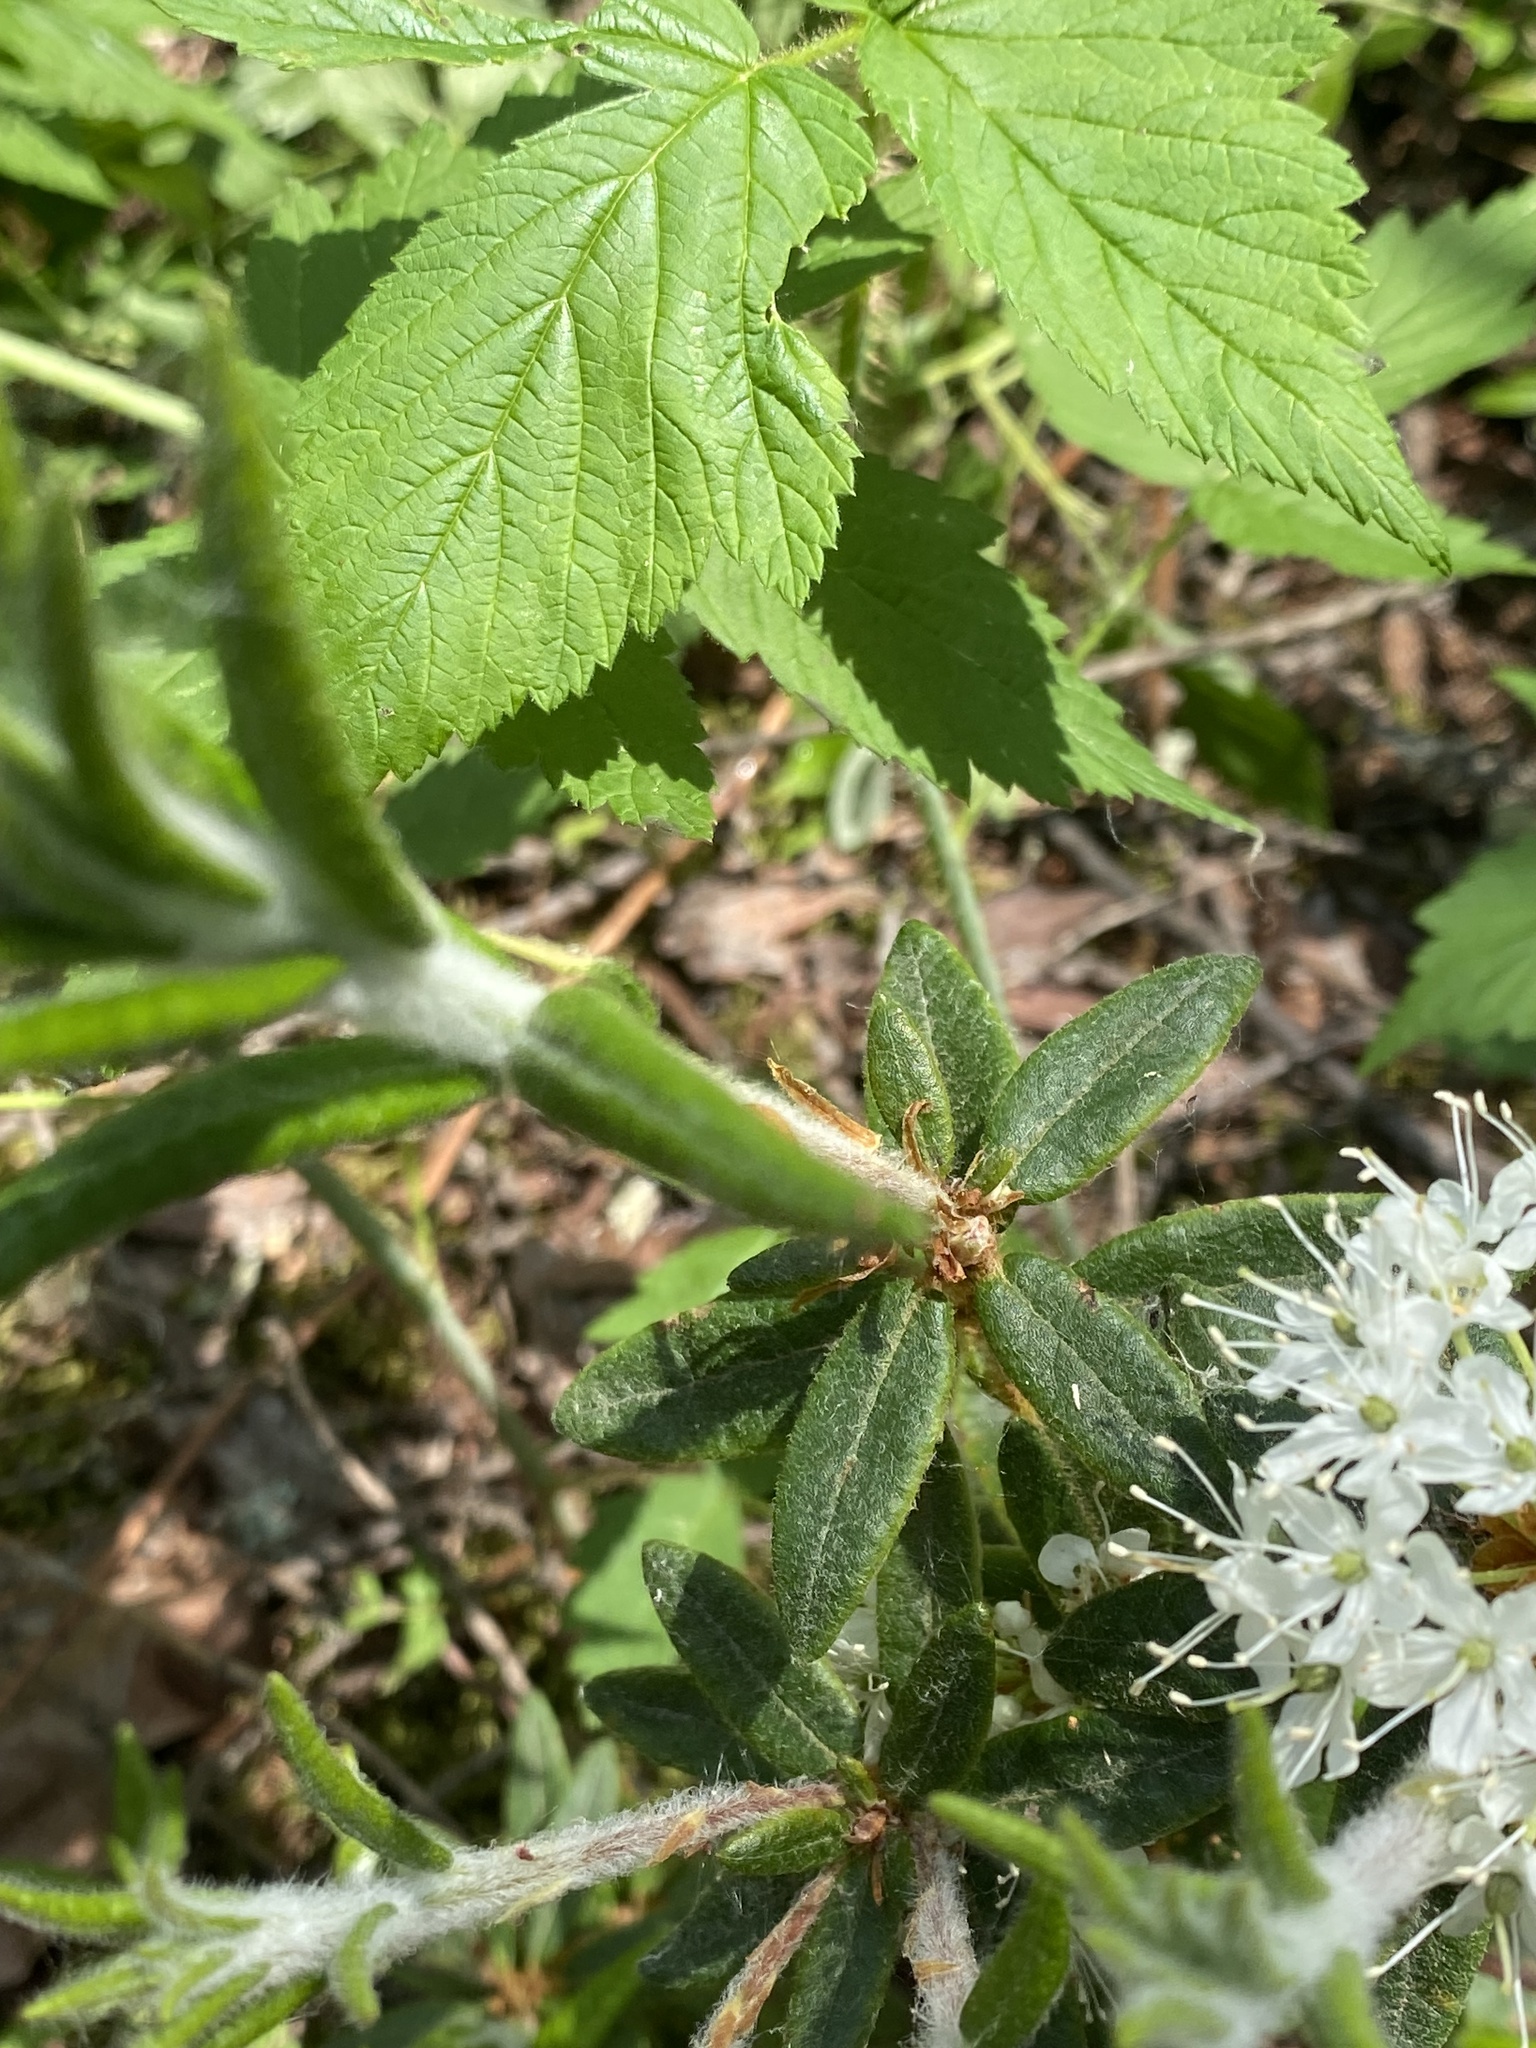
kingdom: Plantae
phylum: Tracheophyta
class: Magnoliopsida
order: Ericales
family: Ericaceae
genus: Rhododendron
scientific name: Rhododendron groenlandicum
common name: Bog labrador tea
